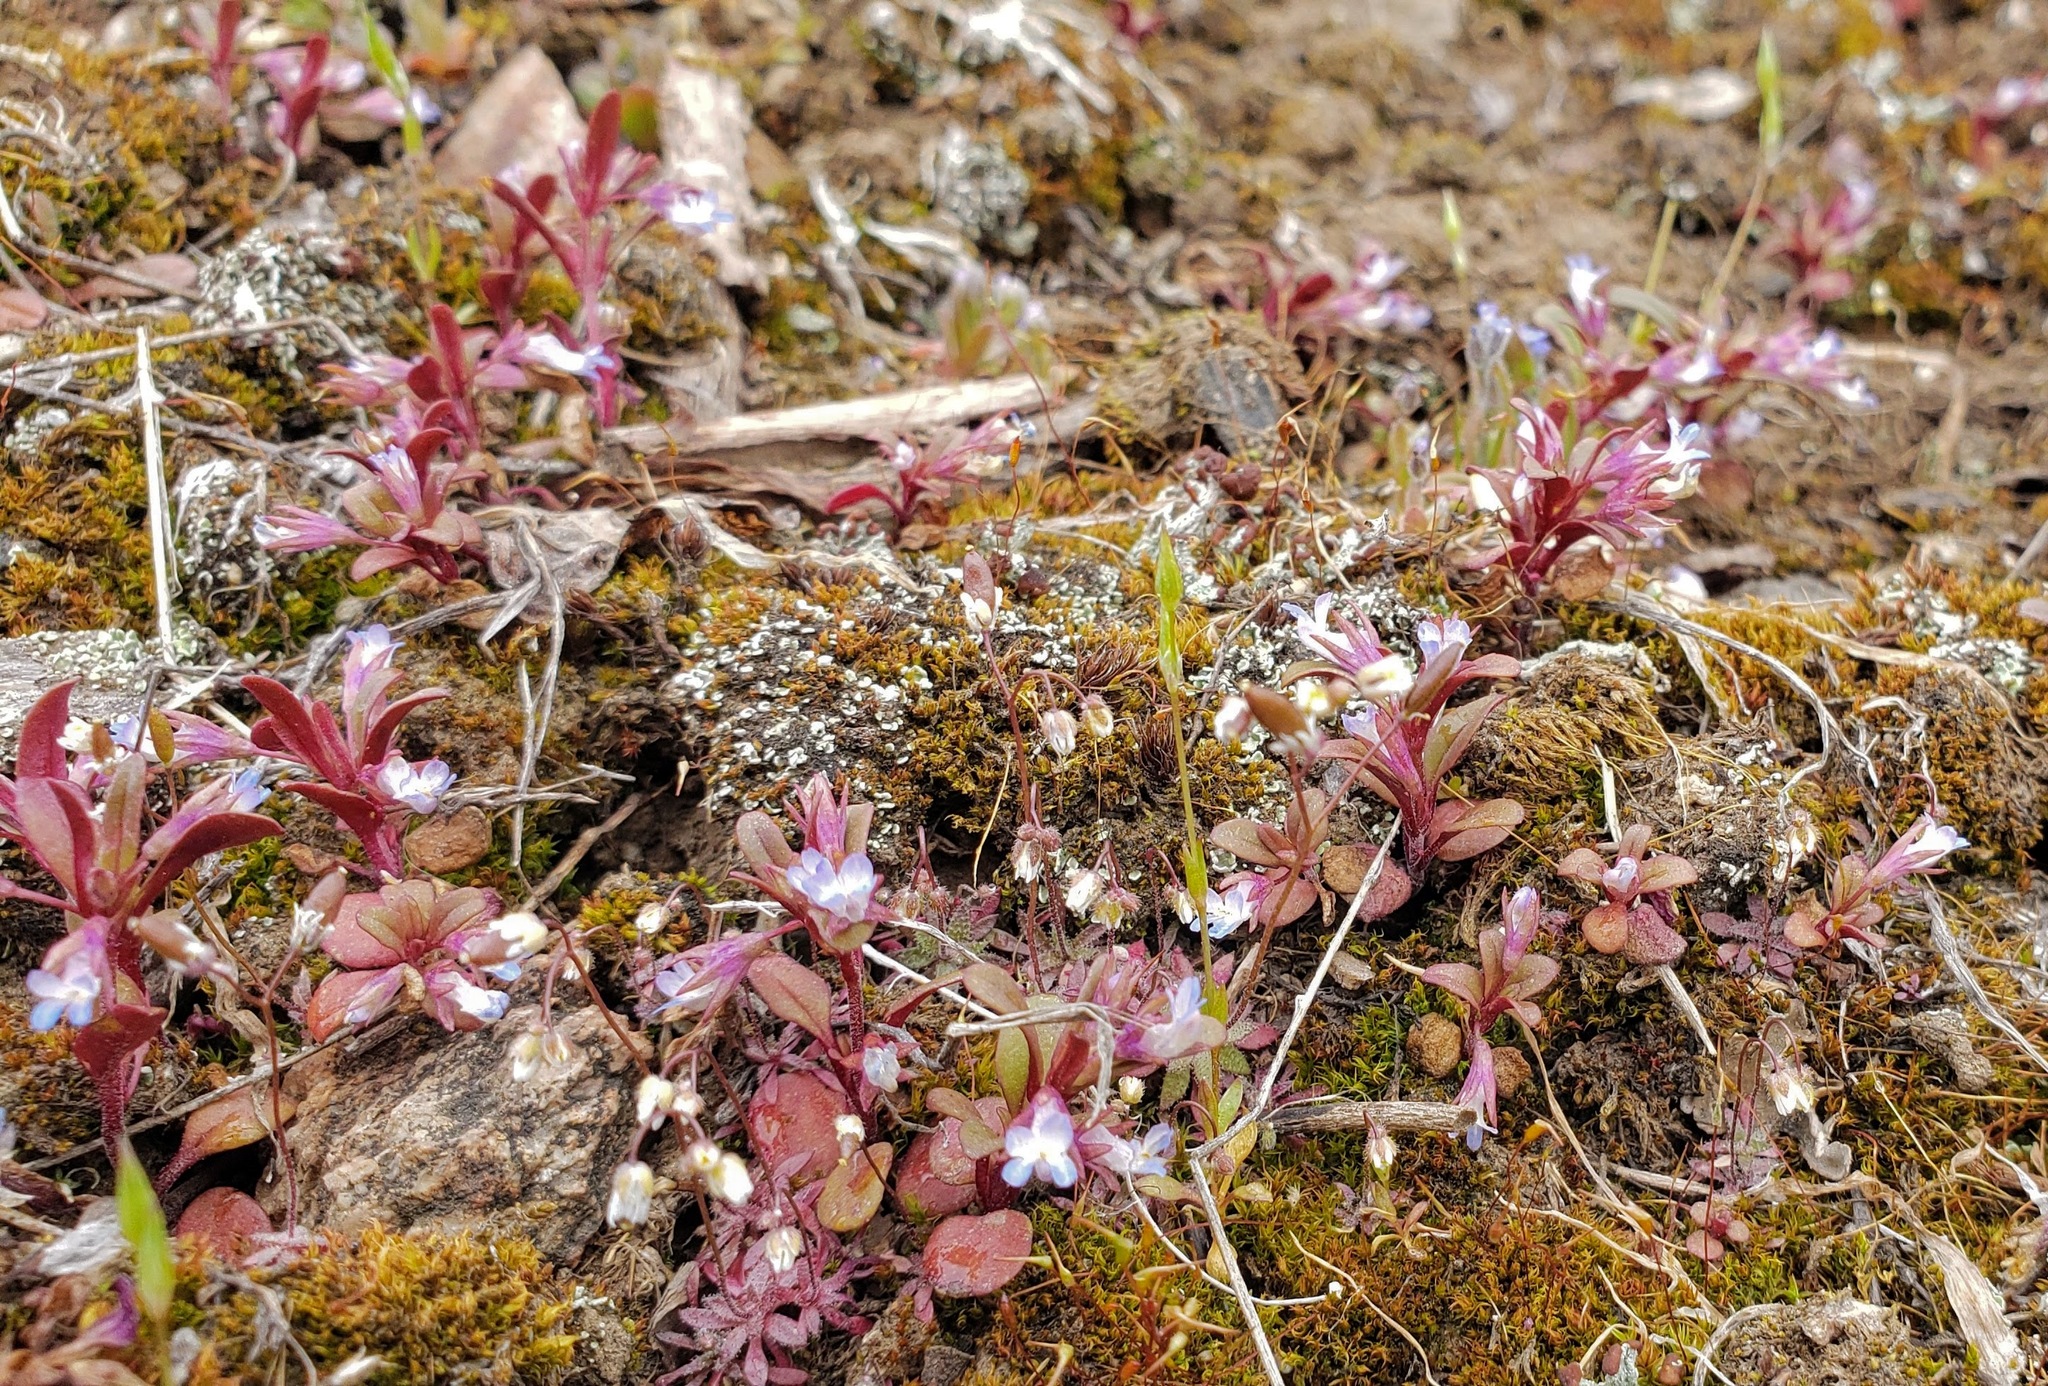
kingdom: Plantae
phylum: Tracheophyta
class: Magnoliopsida
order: Lamiales
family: Plantaginaceae
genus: Collinsia
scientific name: Collinsia parviflora
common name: Blue-lips
